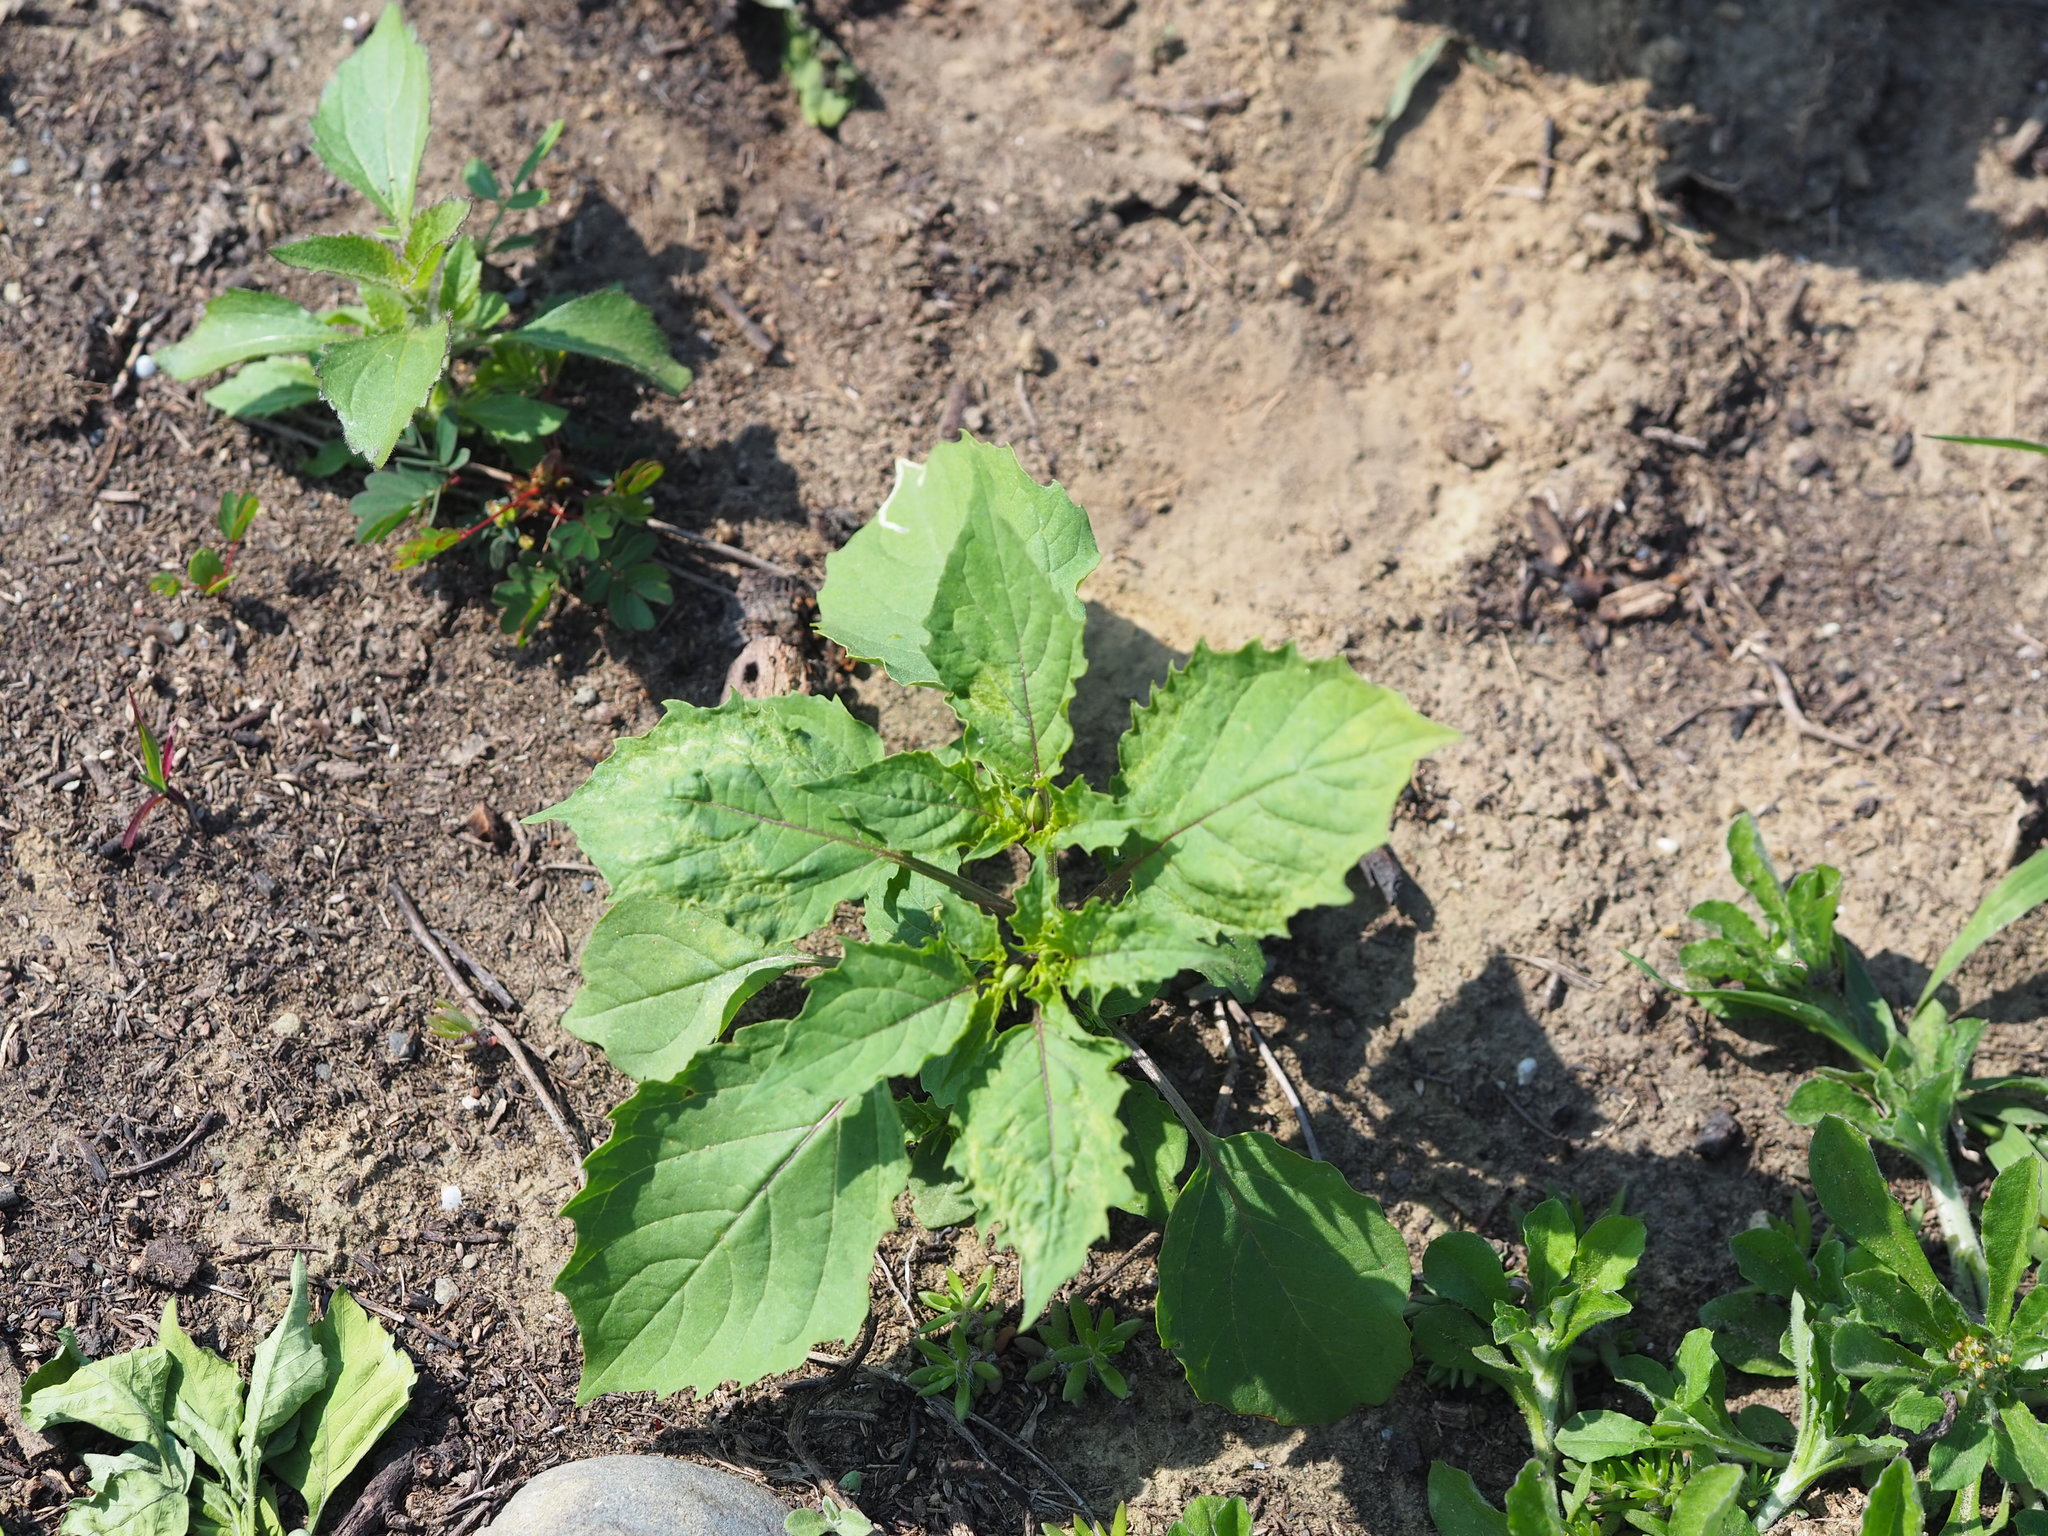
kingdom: Plantae
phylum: Tracheophyta
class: Magnoliopsida
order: Solanales
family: Solanaceae
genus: Physalis
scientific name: Physalis angulata
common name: Angular winter-cherry
